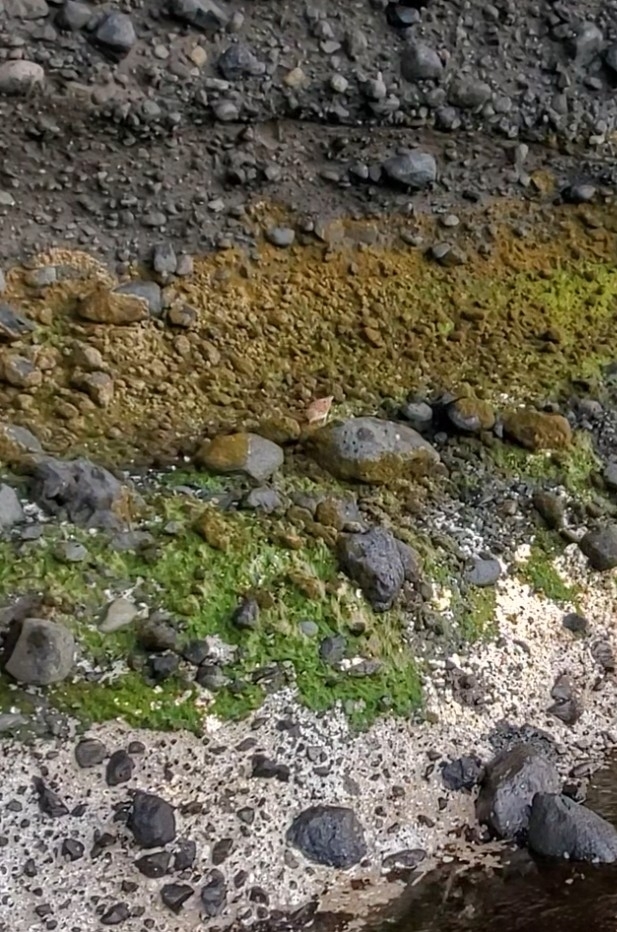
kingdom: Animalia
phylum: Chordata
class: Aves
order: Passeriformes
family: Motacillidae
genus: Anthus
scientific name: Anthus novaeseelandiae
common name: New zealand pipit
